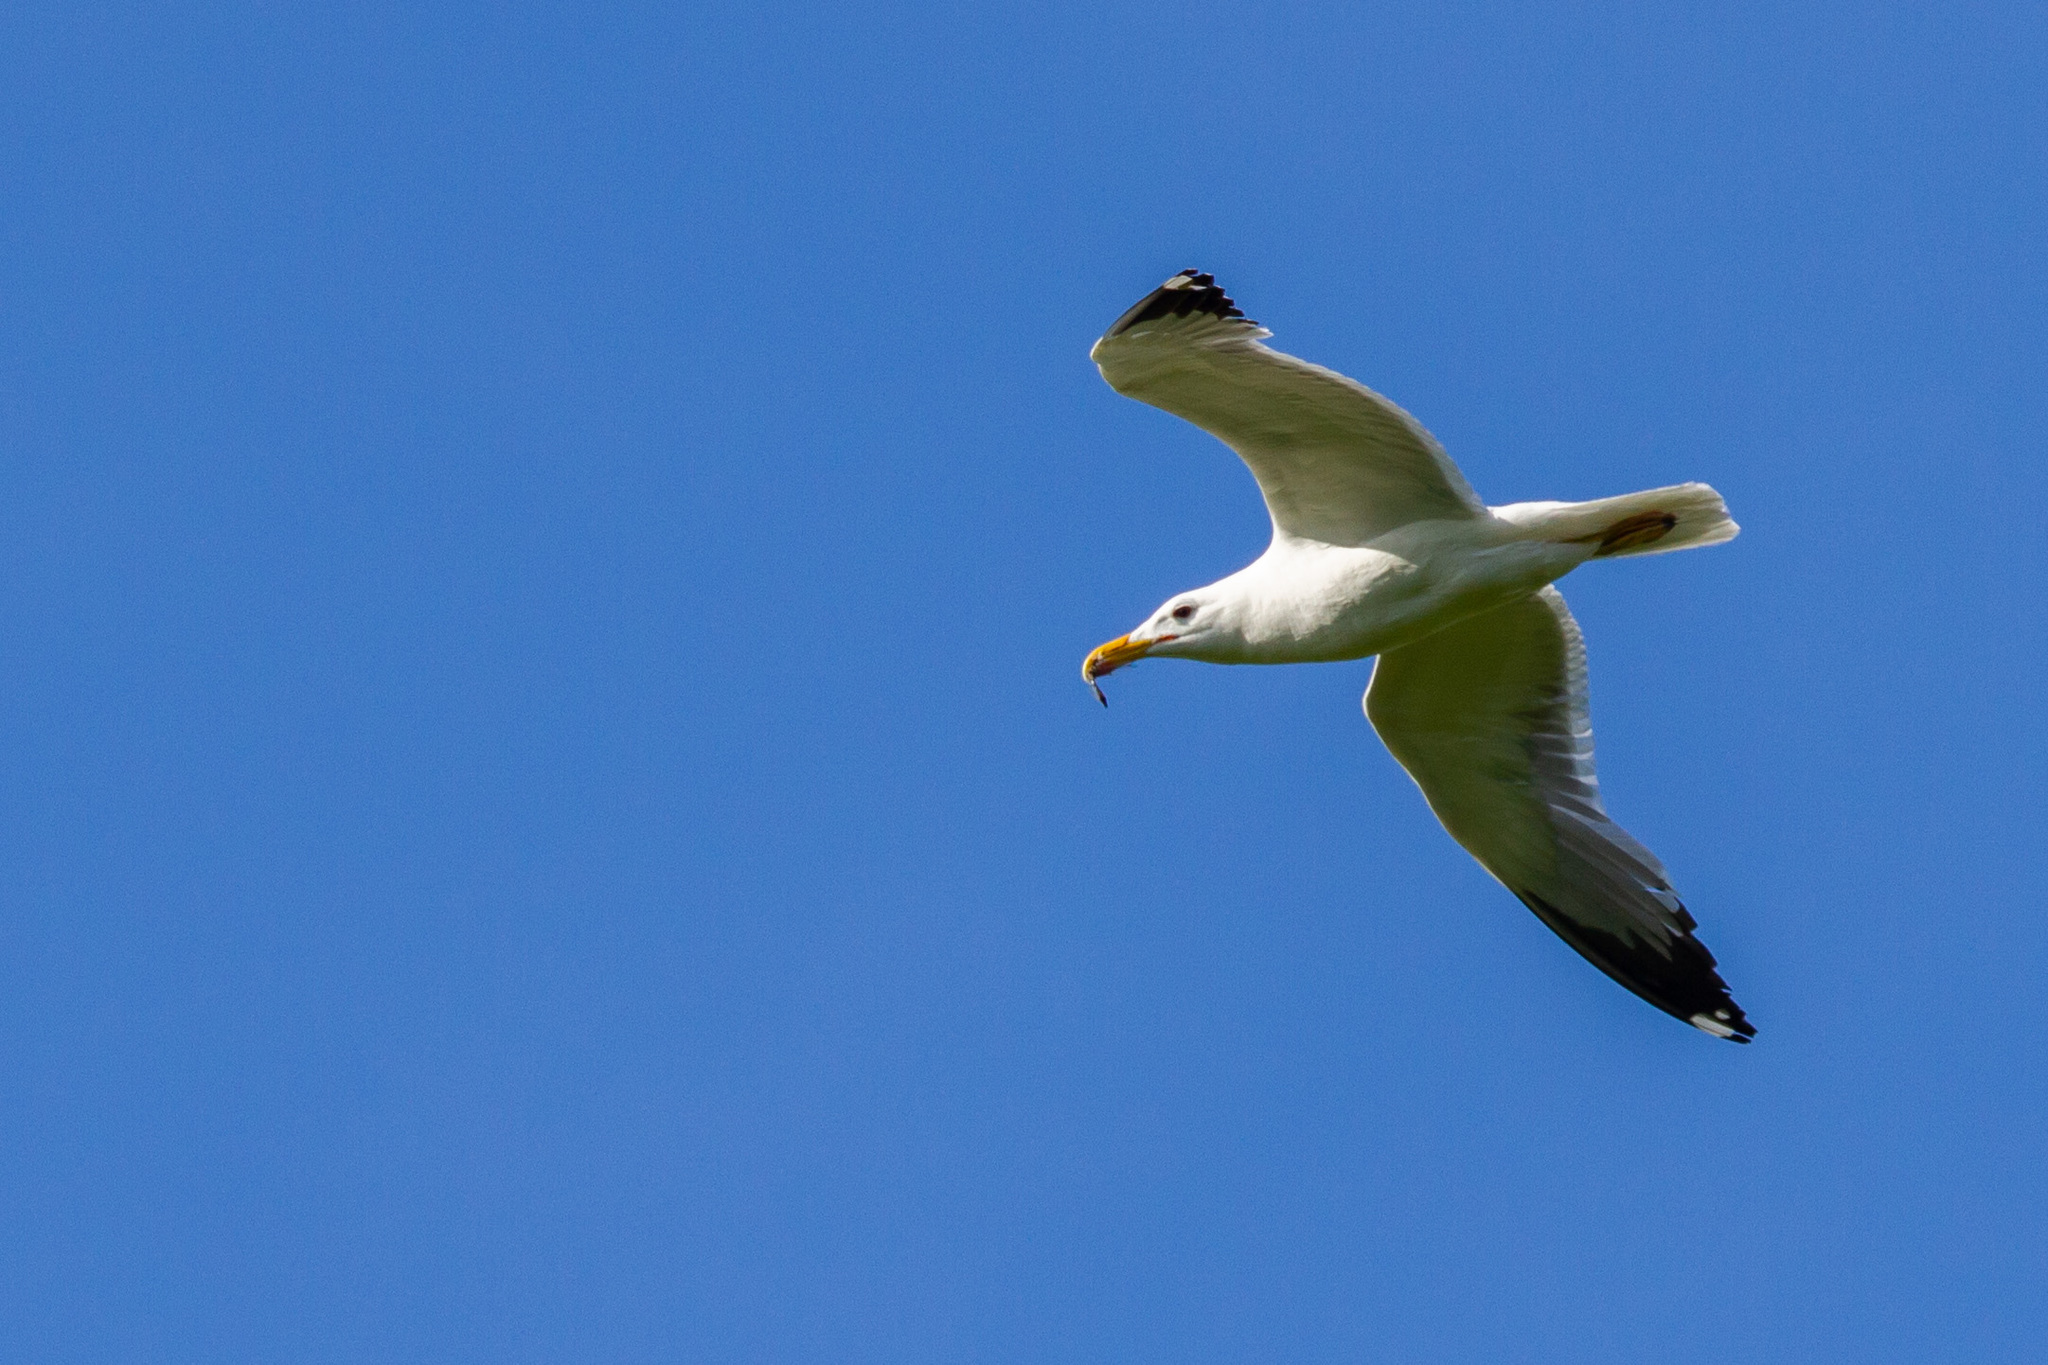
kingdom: Animalia
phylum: Chordata
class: Aves
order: Charadriiformes
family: Laridae
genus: Larus
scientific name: Larus fuscus
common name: Lesser black-backed gull
